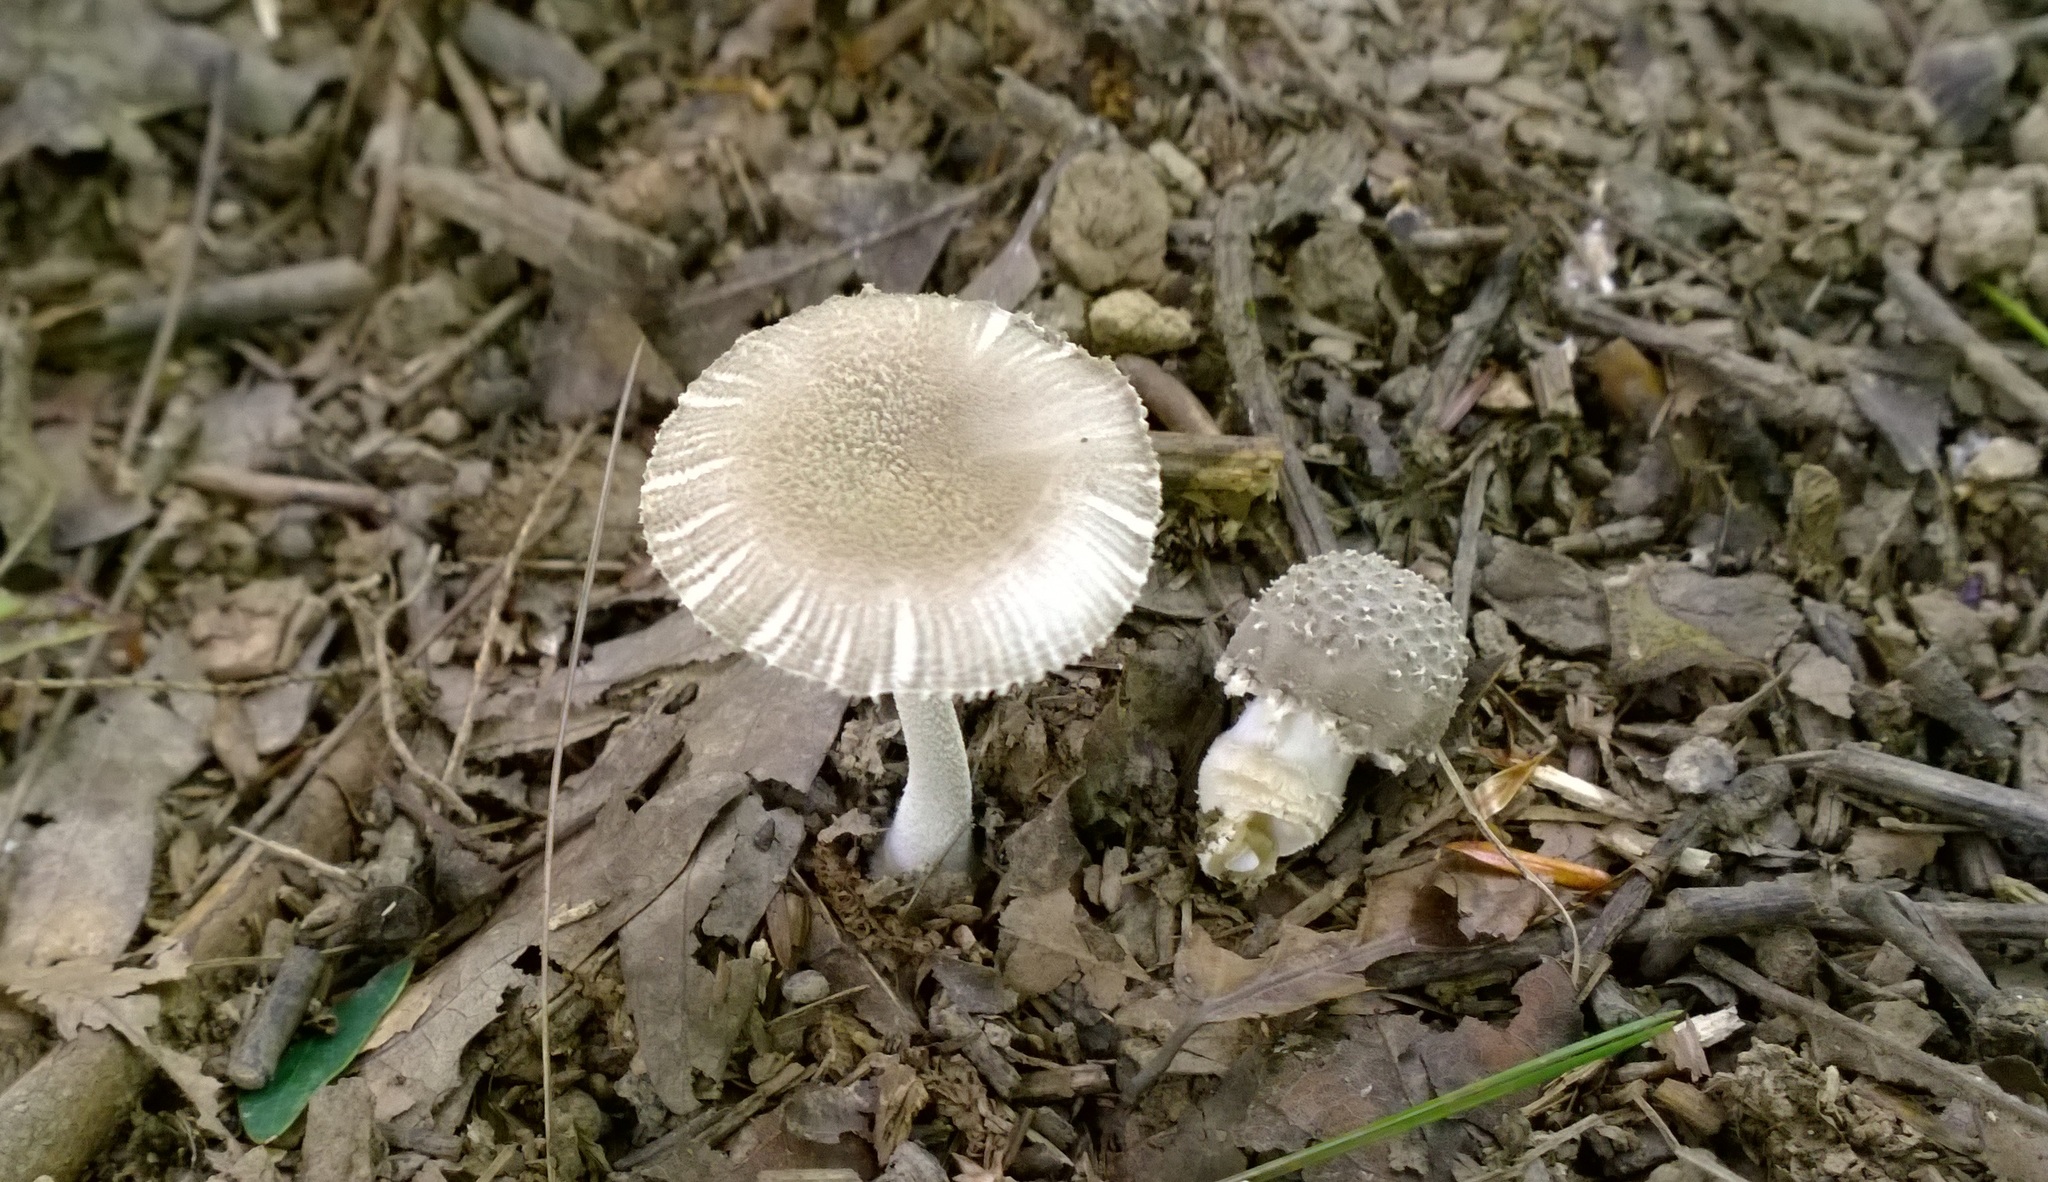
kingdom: Fungi
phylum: Basidiomycota
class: Agaricomycetes
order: Agaricales
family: Amanitaceae
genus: Amanita
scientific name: Amanita farinosa
